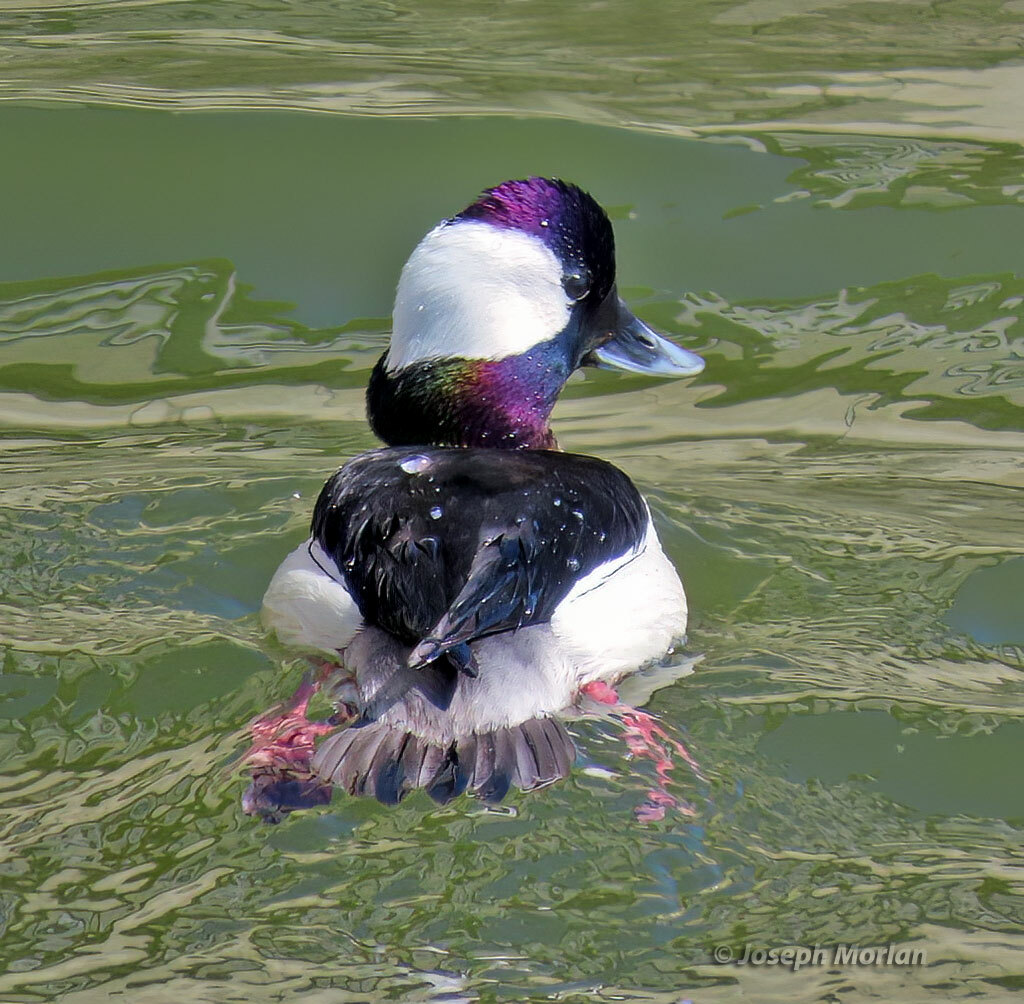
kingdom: Animalia
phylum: Chordata
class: Aves
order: Anseriformes
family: Anatidae
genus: Bucephala
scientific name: Bucephala albeola
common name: Bufflehead
